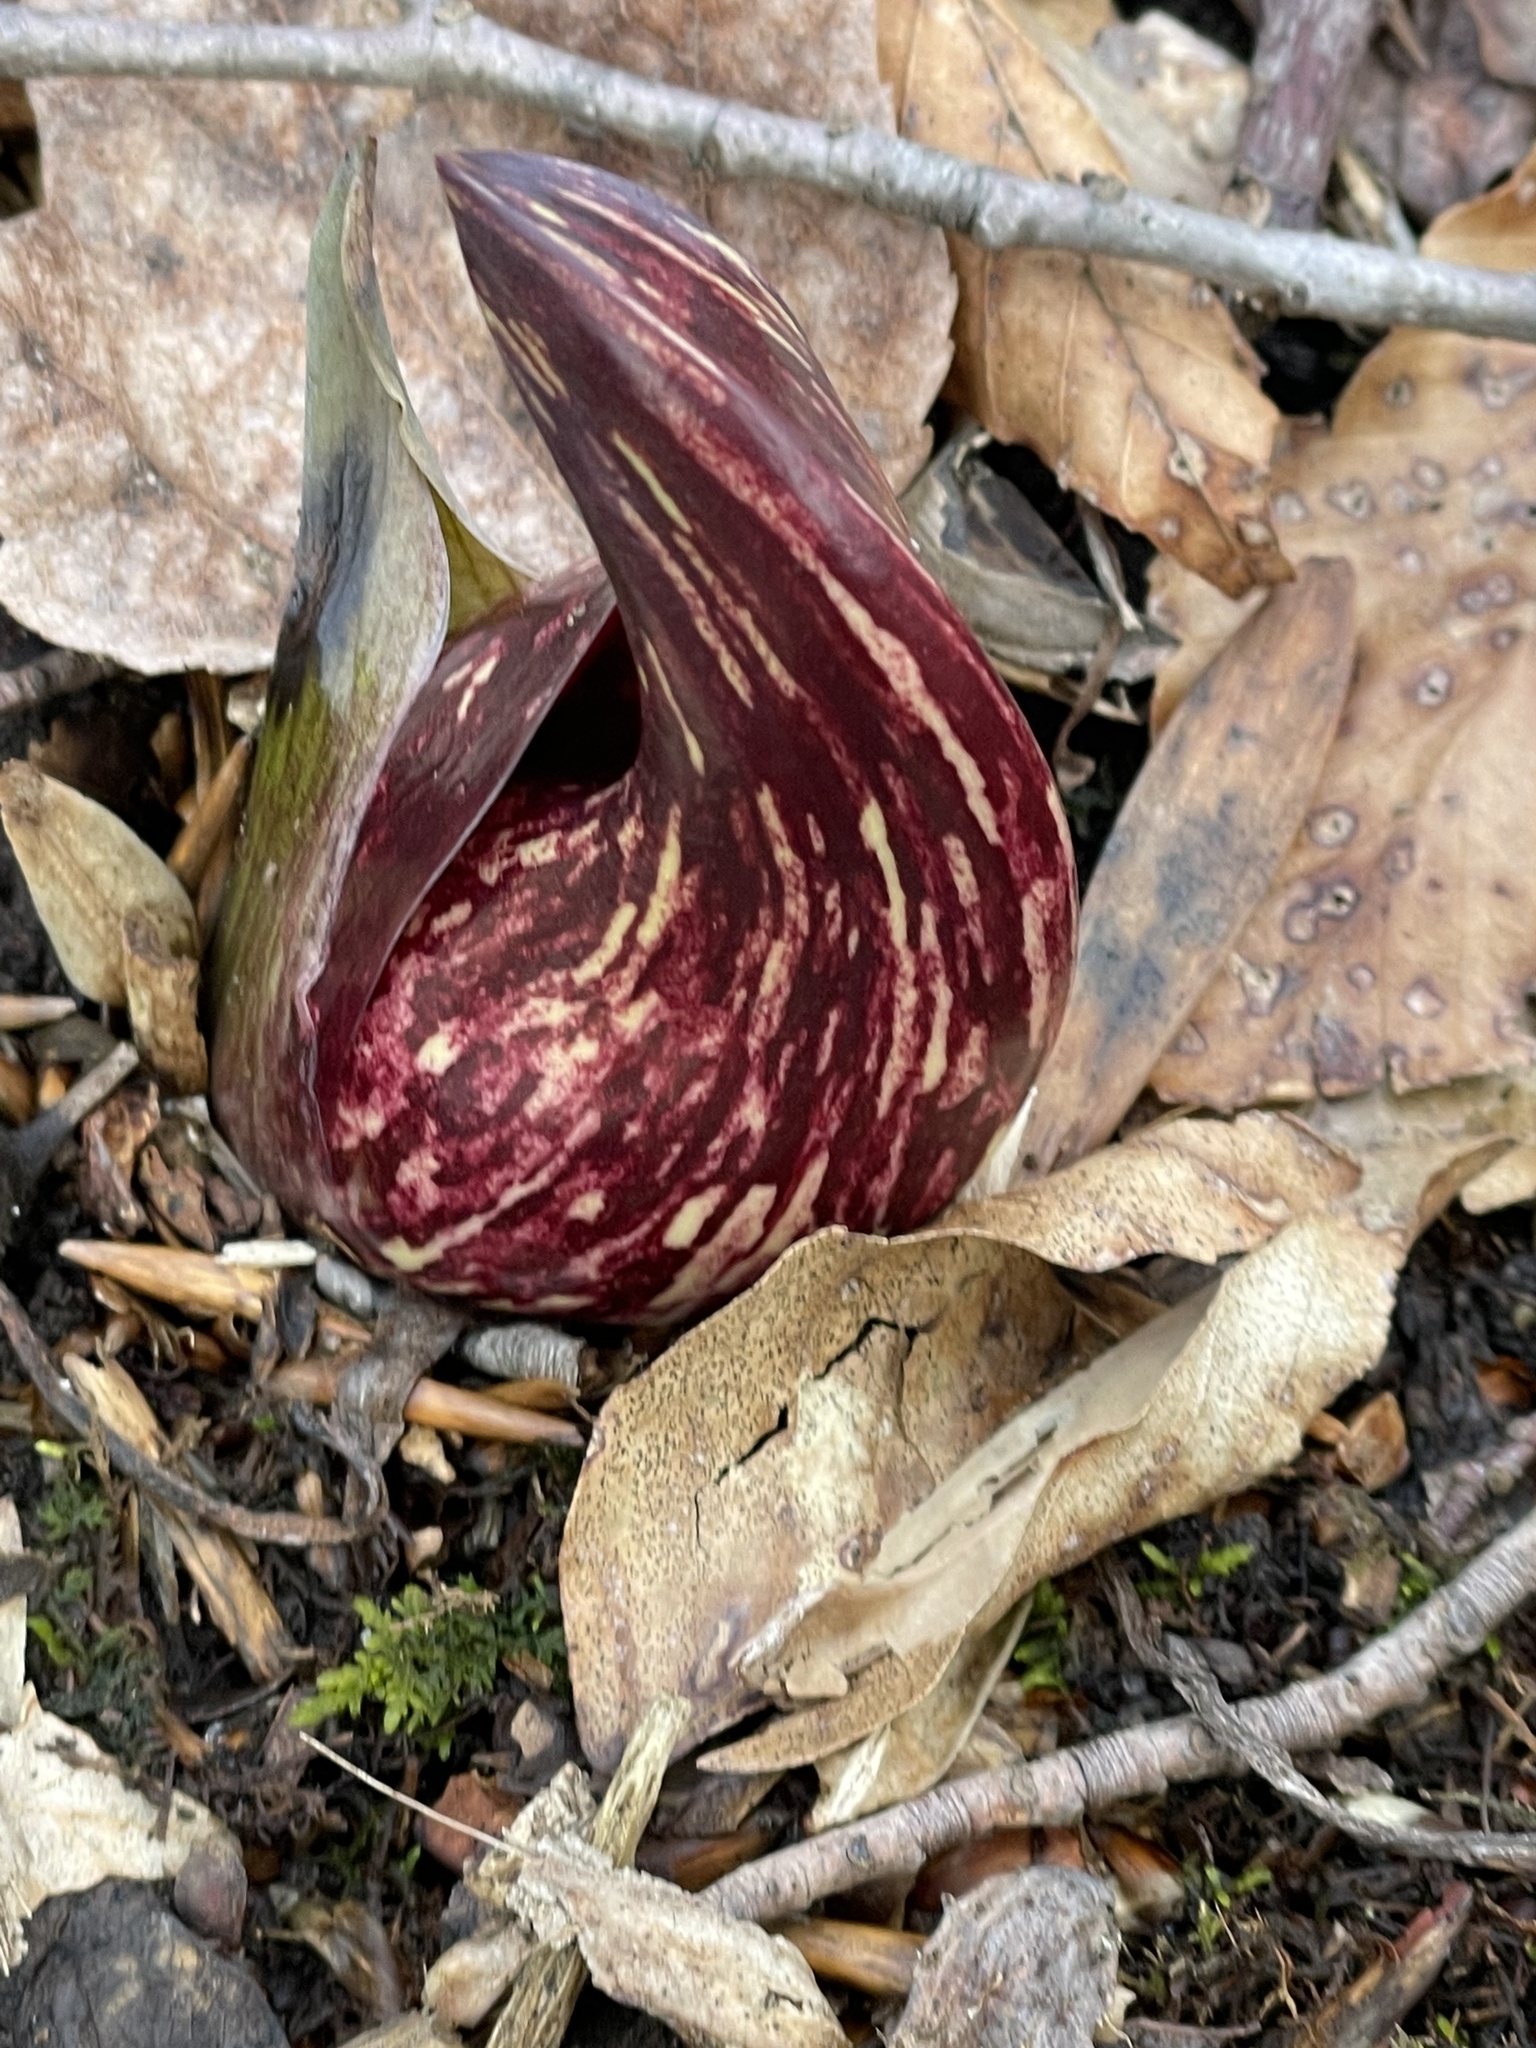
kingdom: Plantae
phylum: Tracheophyta
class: Liliopsida
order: Alismatales
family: Araceae
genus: Symplocarpus
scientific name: Symplocarpus foetidus
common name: Eastern skunk cabbage
